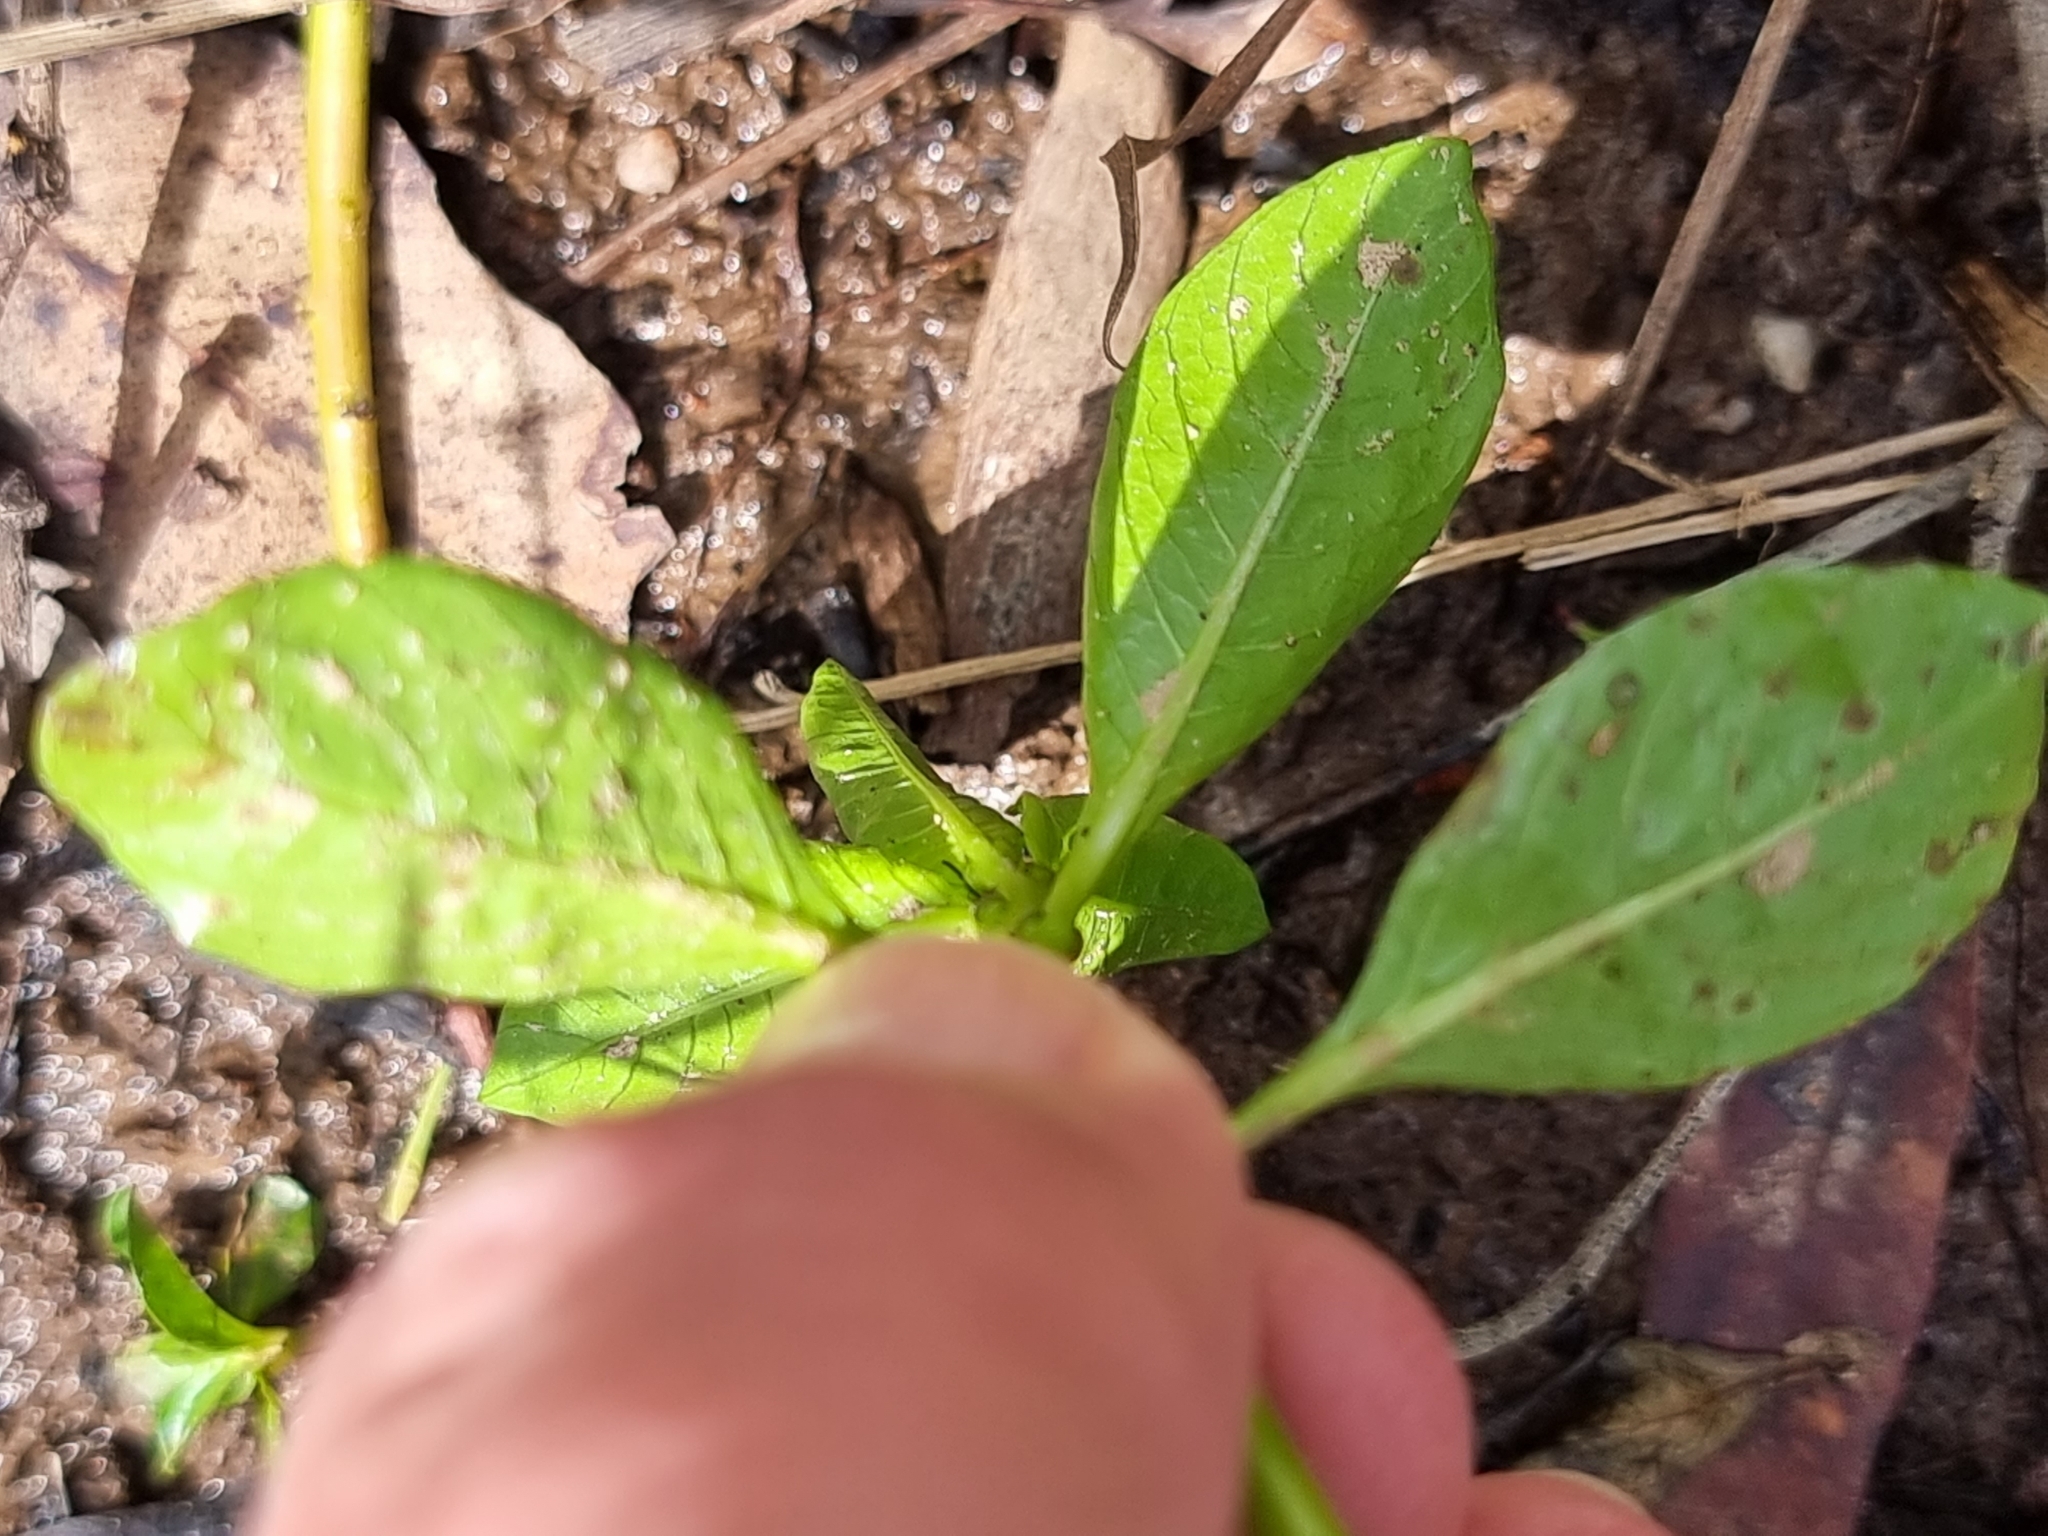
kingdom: Plantae
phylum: Tracheophyta
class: Magnoliopsida
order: Myrtales
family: Onagraceae
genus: Ludwigia
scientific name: Ludwigia peploides
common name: Floating primrose-willow
